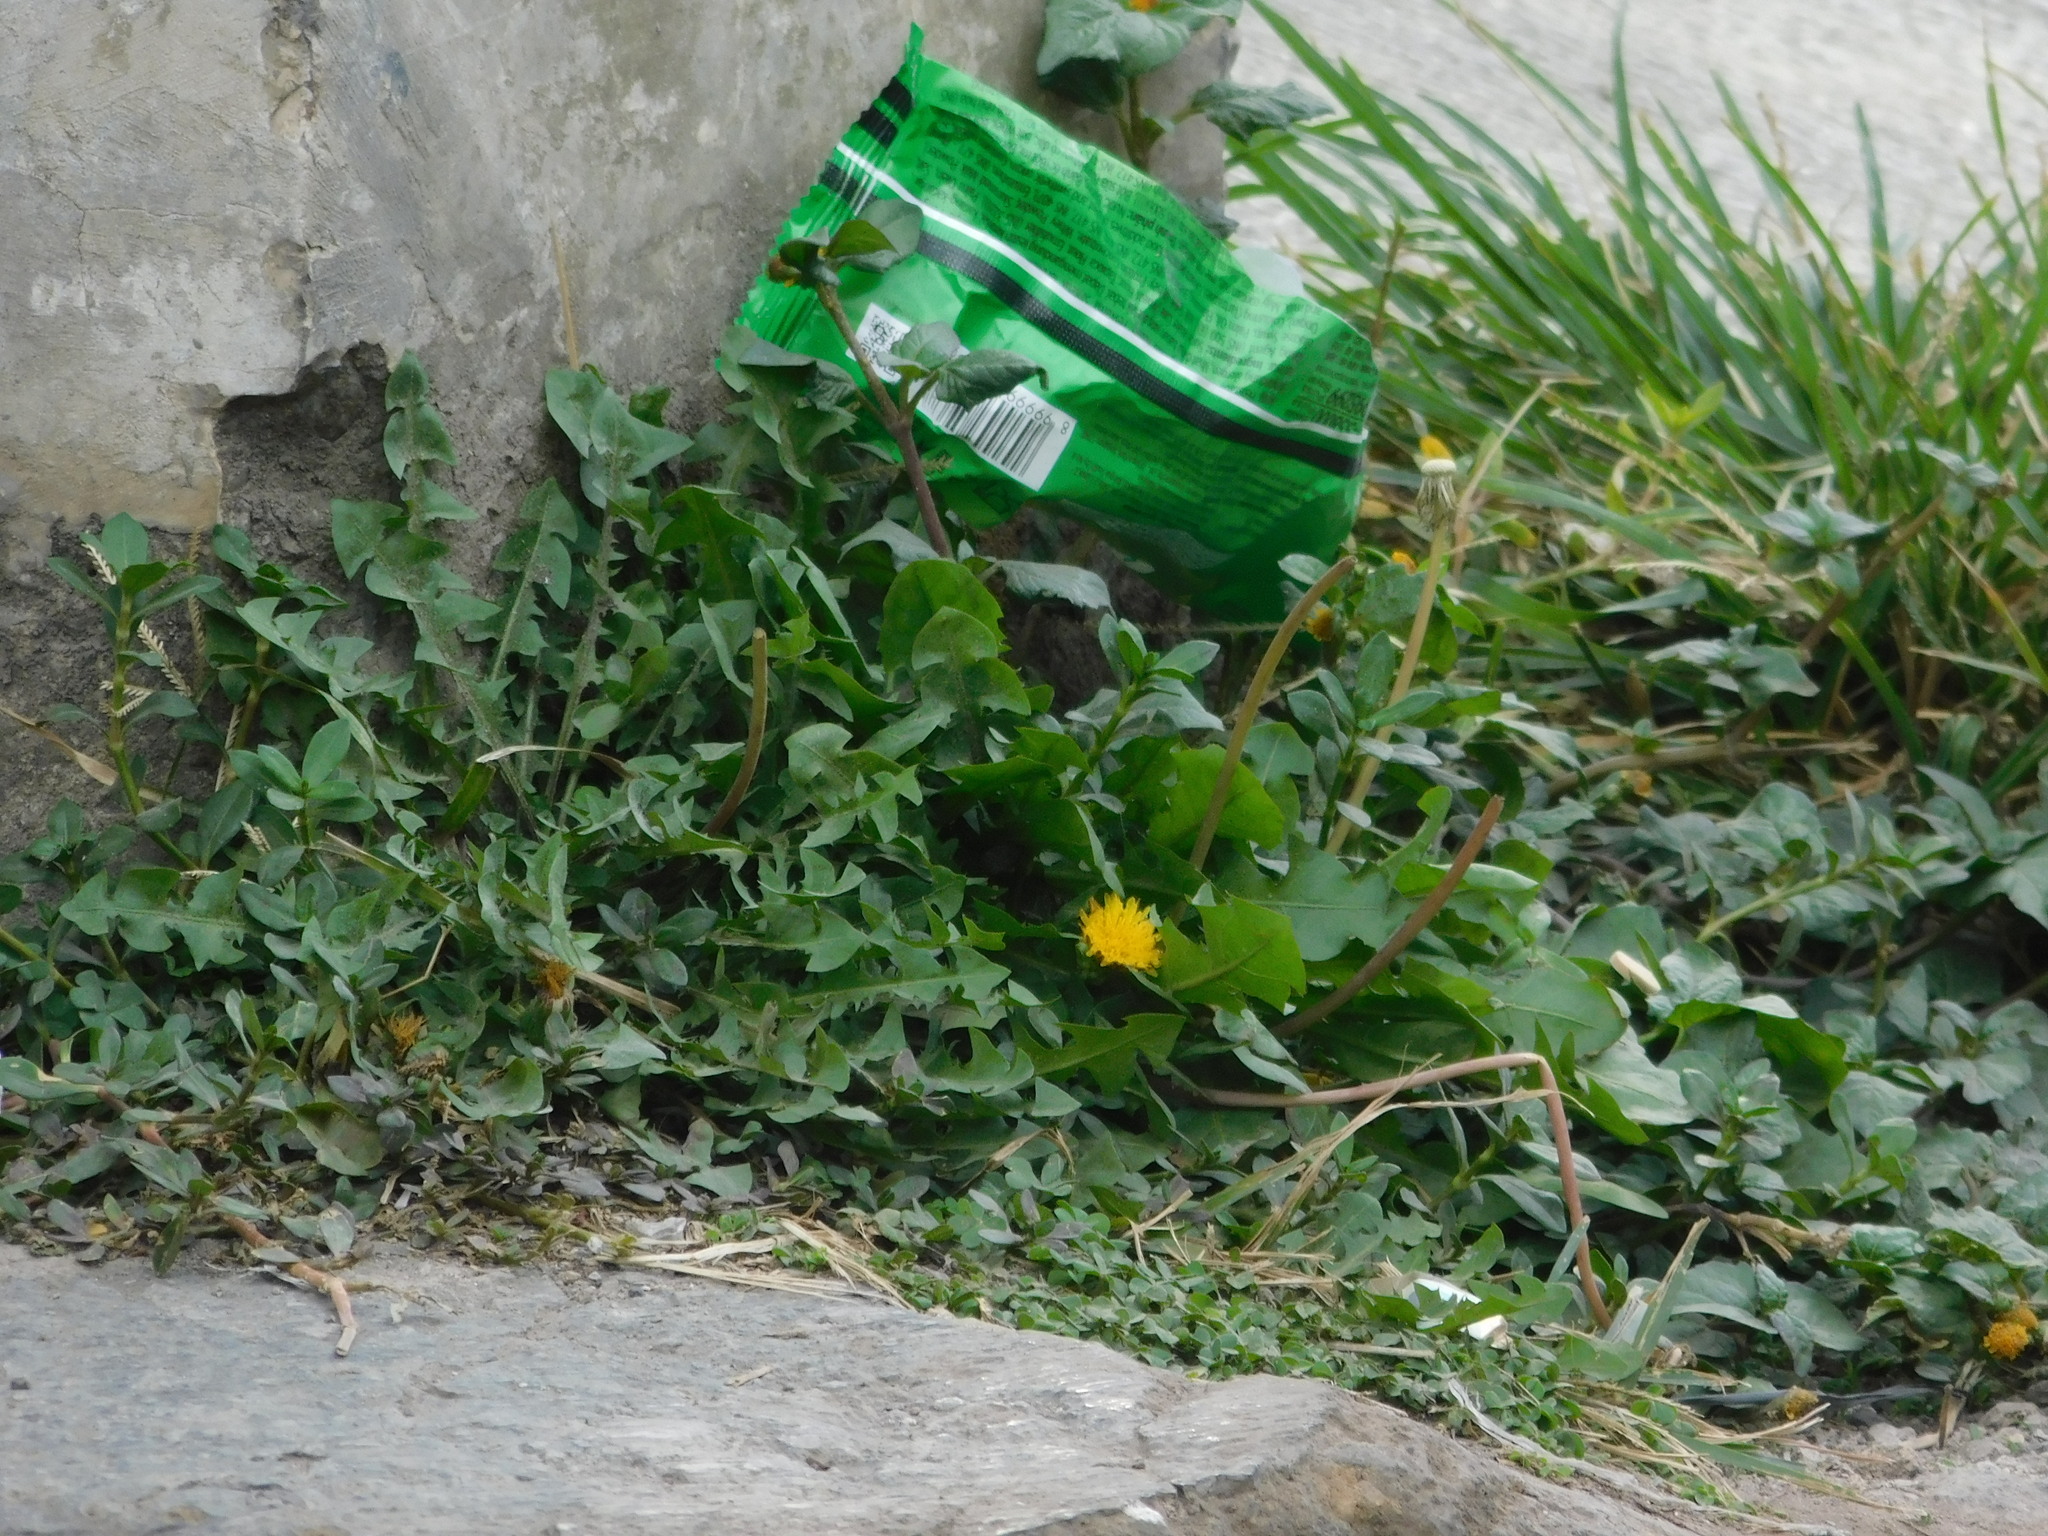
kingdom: Plantae
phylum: Tracheophyta
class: Magnoliopsida
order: Asterales
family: Asteraceae
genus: Taraxacum
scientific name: Taraxacum officinale
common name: Common dandelion
